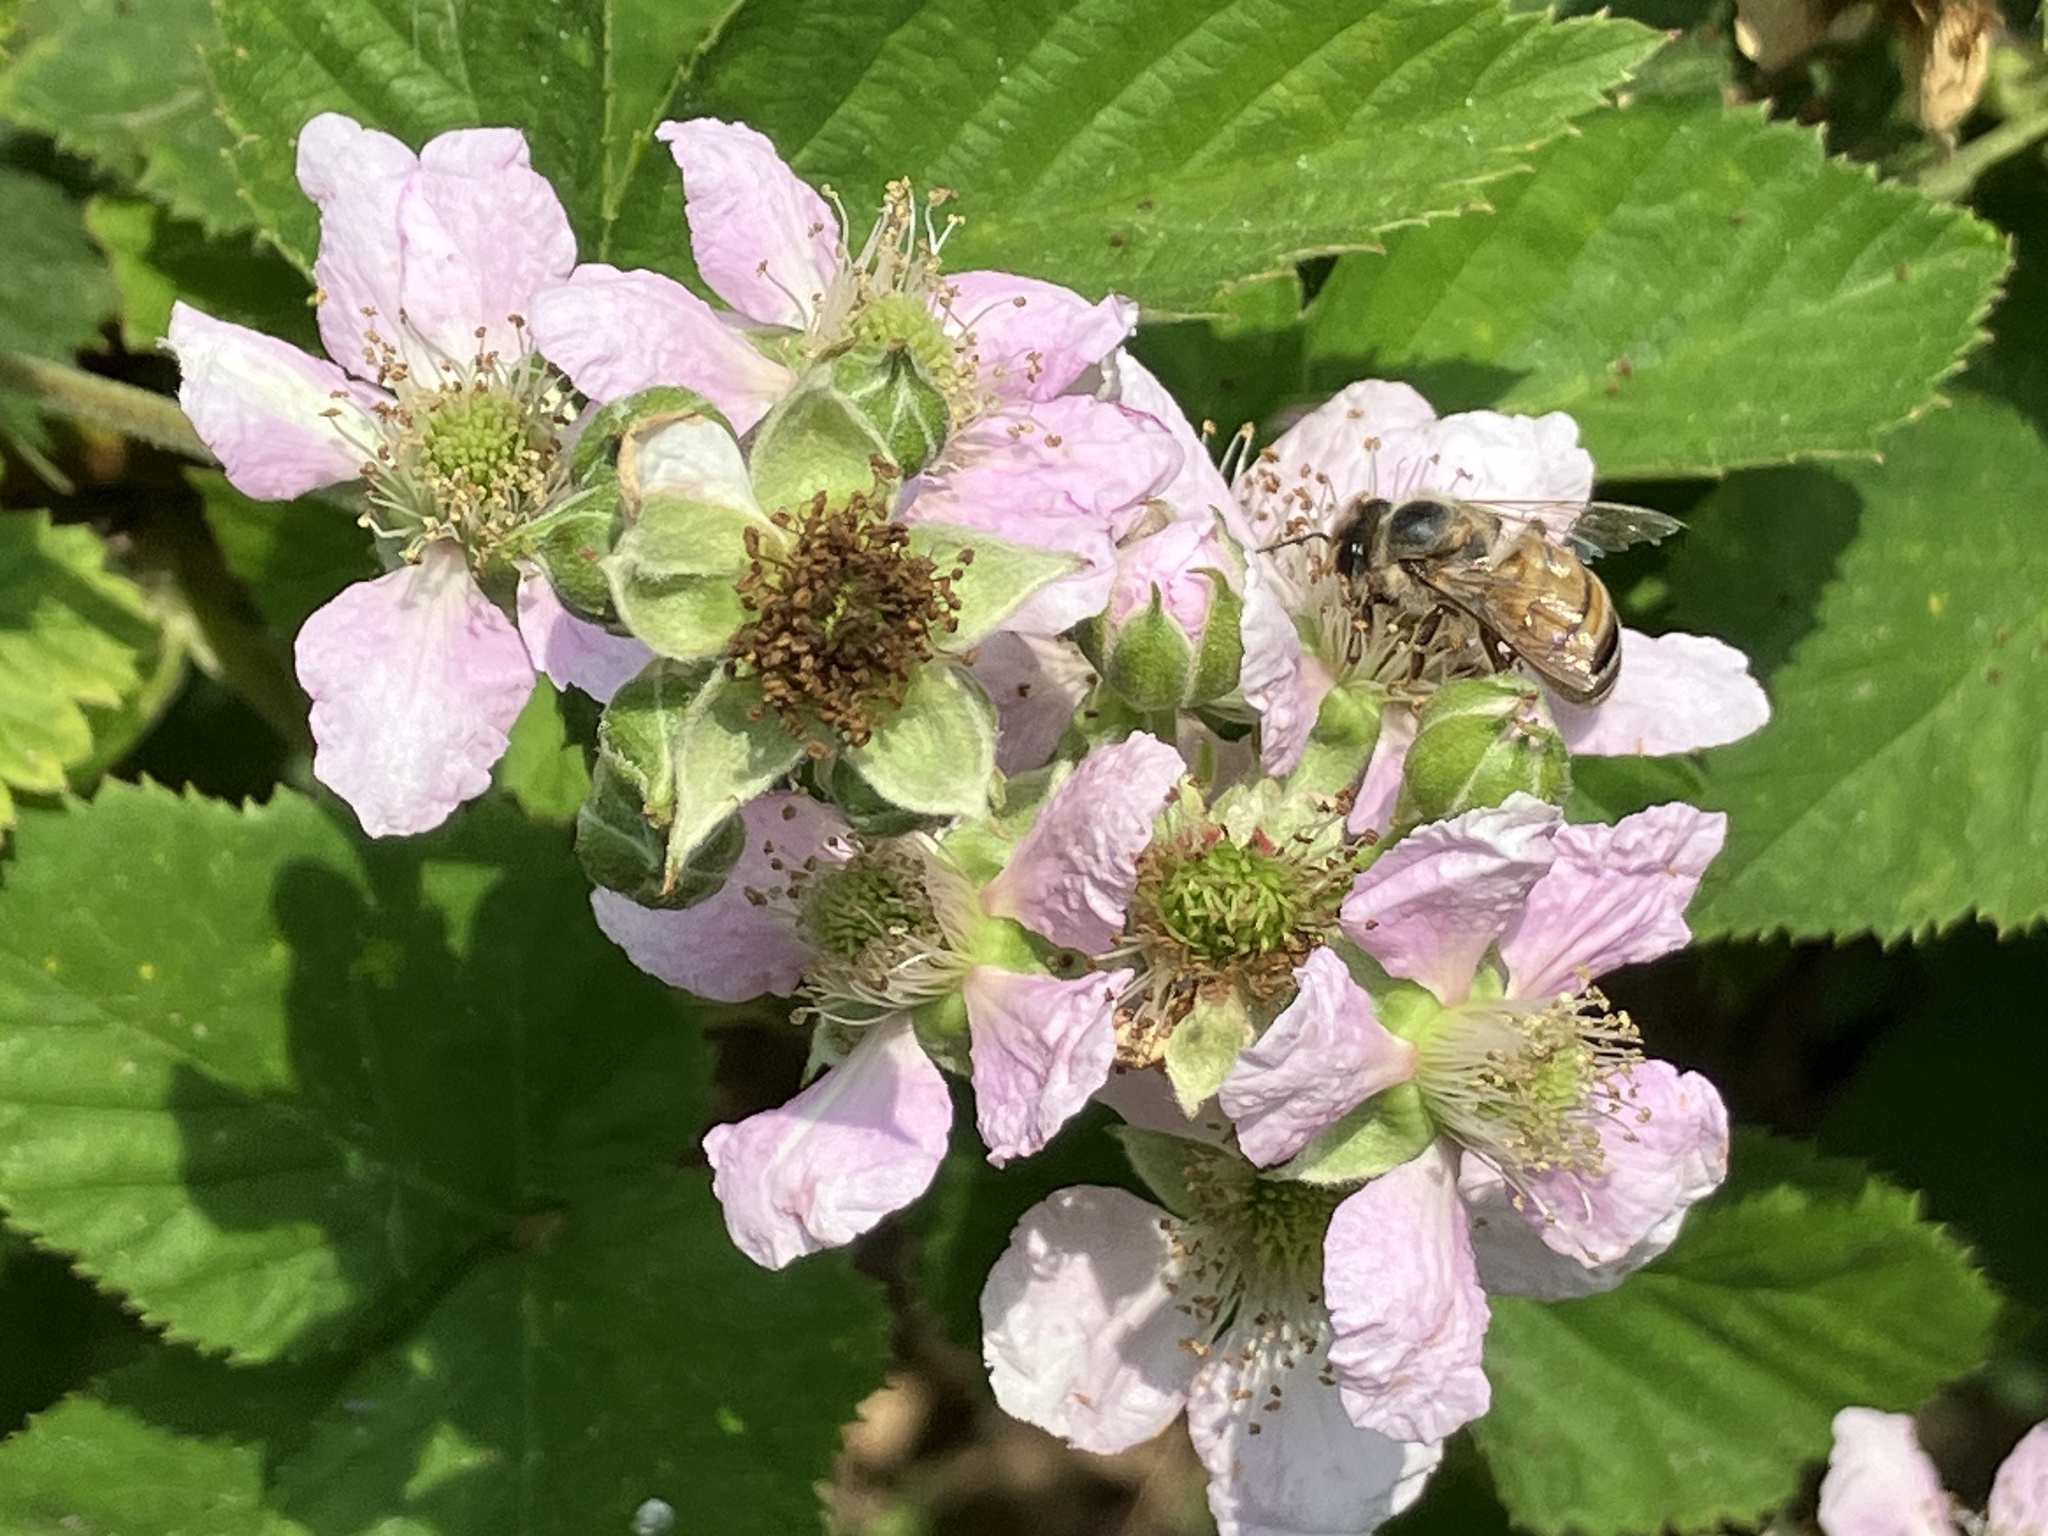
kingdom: Animalia
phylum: Arthropoda
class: Insecta
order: Hymenoptera
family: Apidae
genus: Apis
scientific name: Apis mellifera
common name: Honey bee
